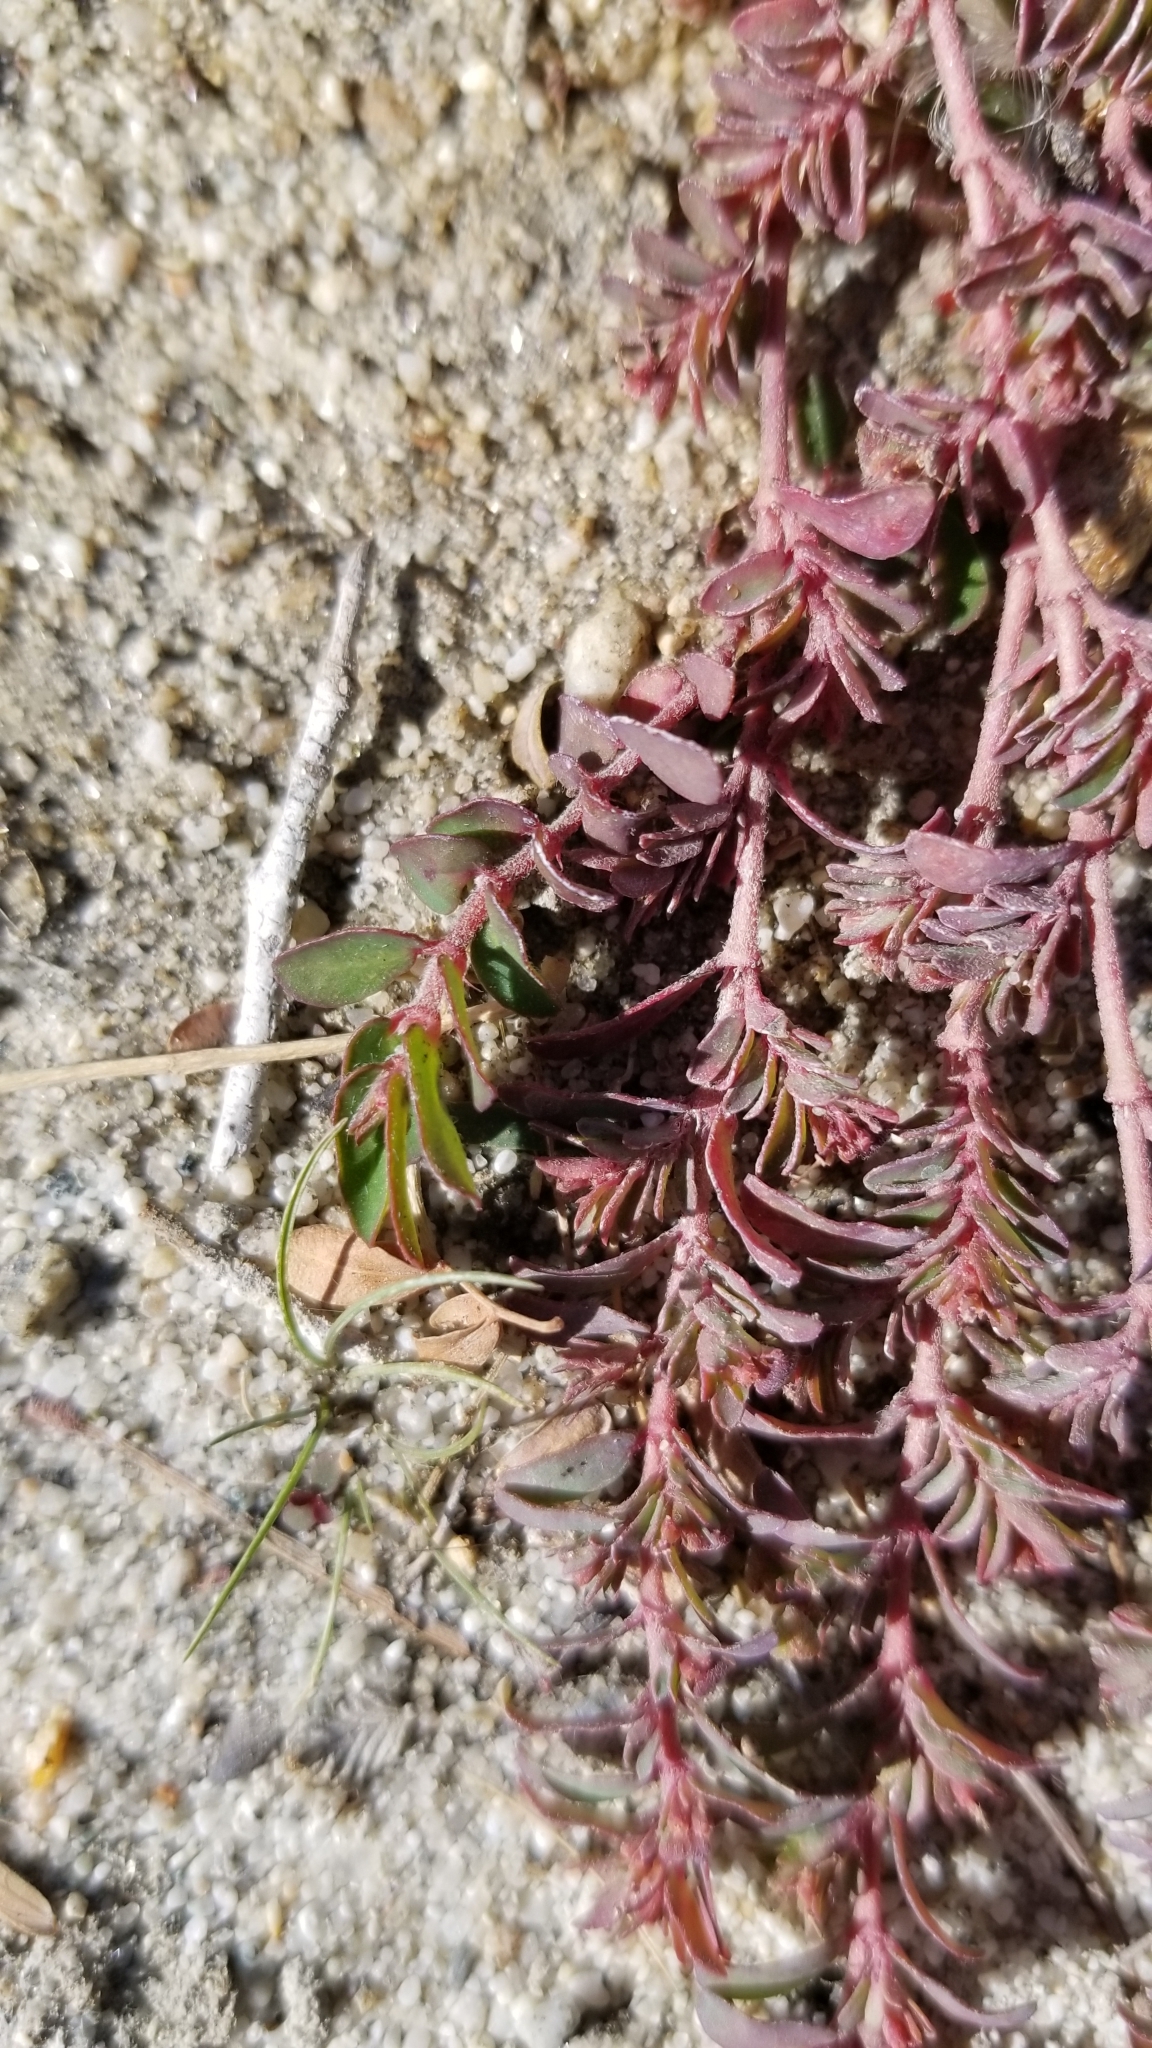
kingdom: Plantae
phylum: Tracheophyta
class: Magnoliopsida
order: Malpighiales
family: Euphorbiaceae
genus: Euphorbia
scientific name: Euphorbia maculata
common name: Spotted spurge
